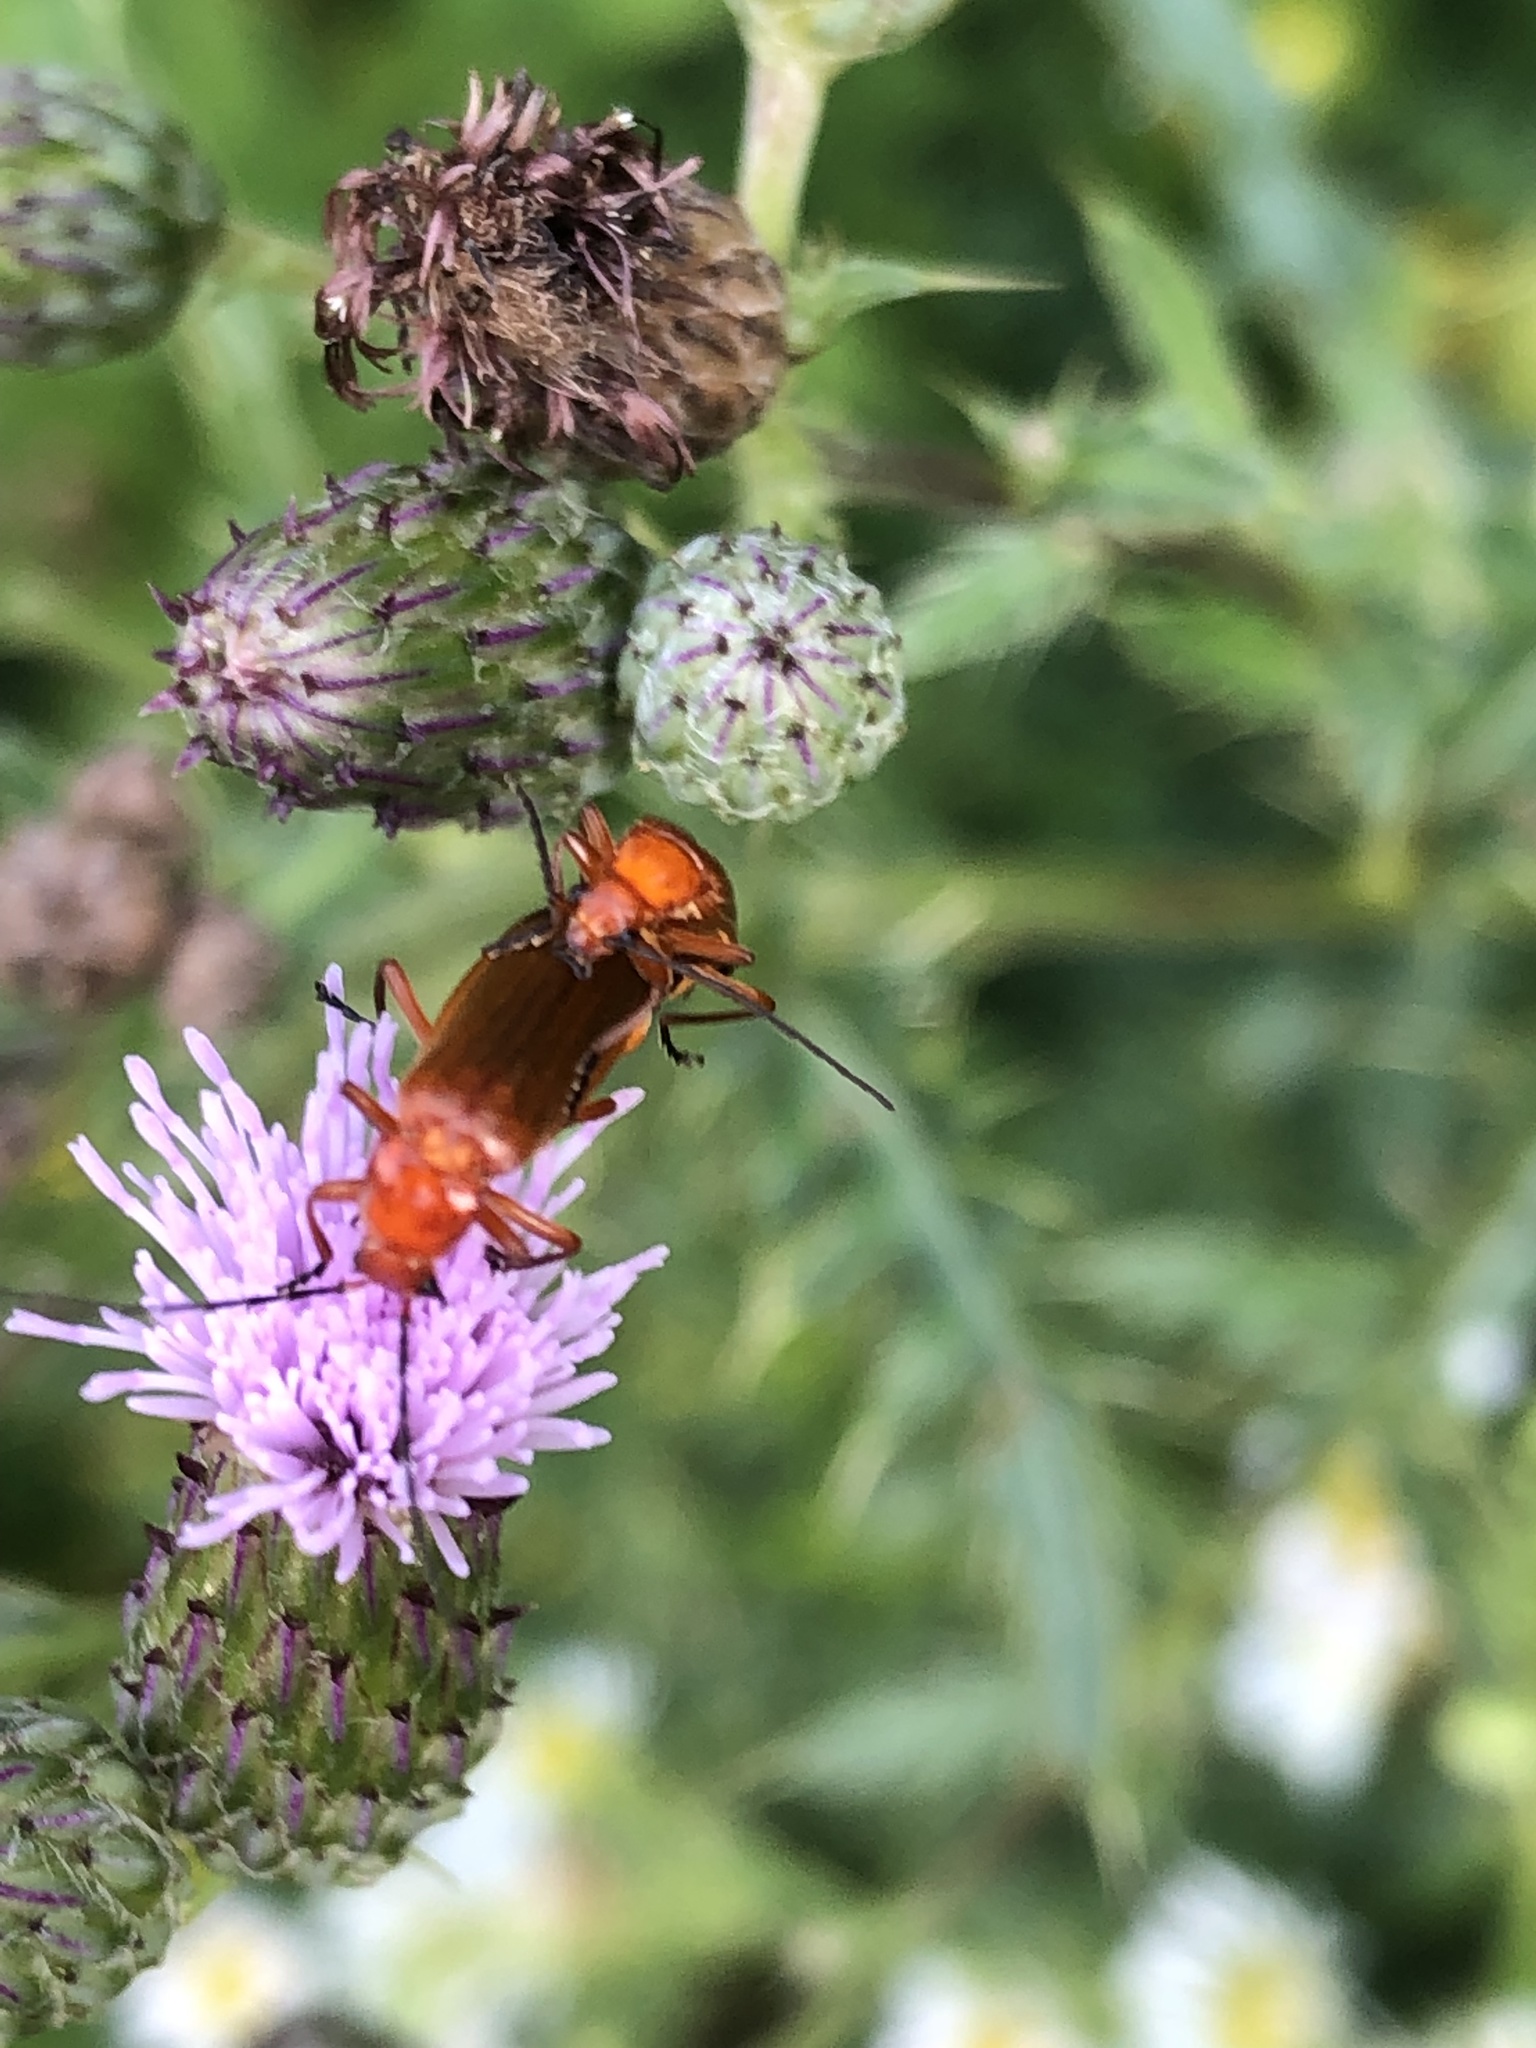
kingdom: Animalia
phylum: Arthropoda
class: Insecta
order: Coleoptera
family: Cantharidae
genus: Rhagonycha
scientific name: Rhagonycha fulva
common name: Common red soldier beetle
